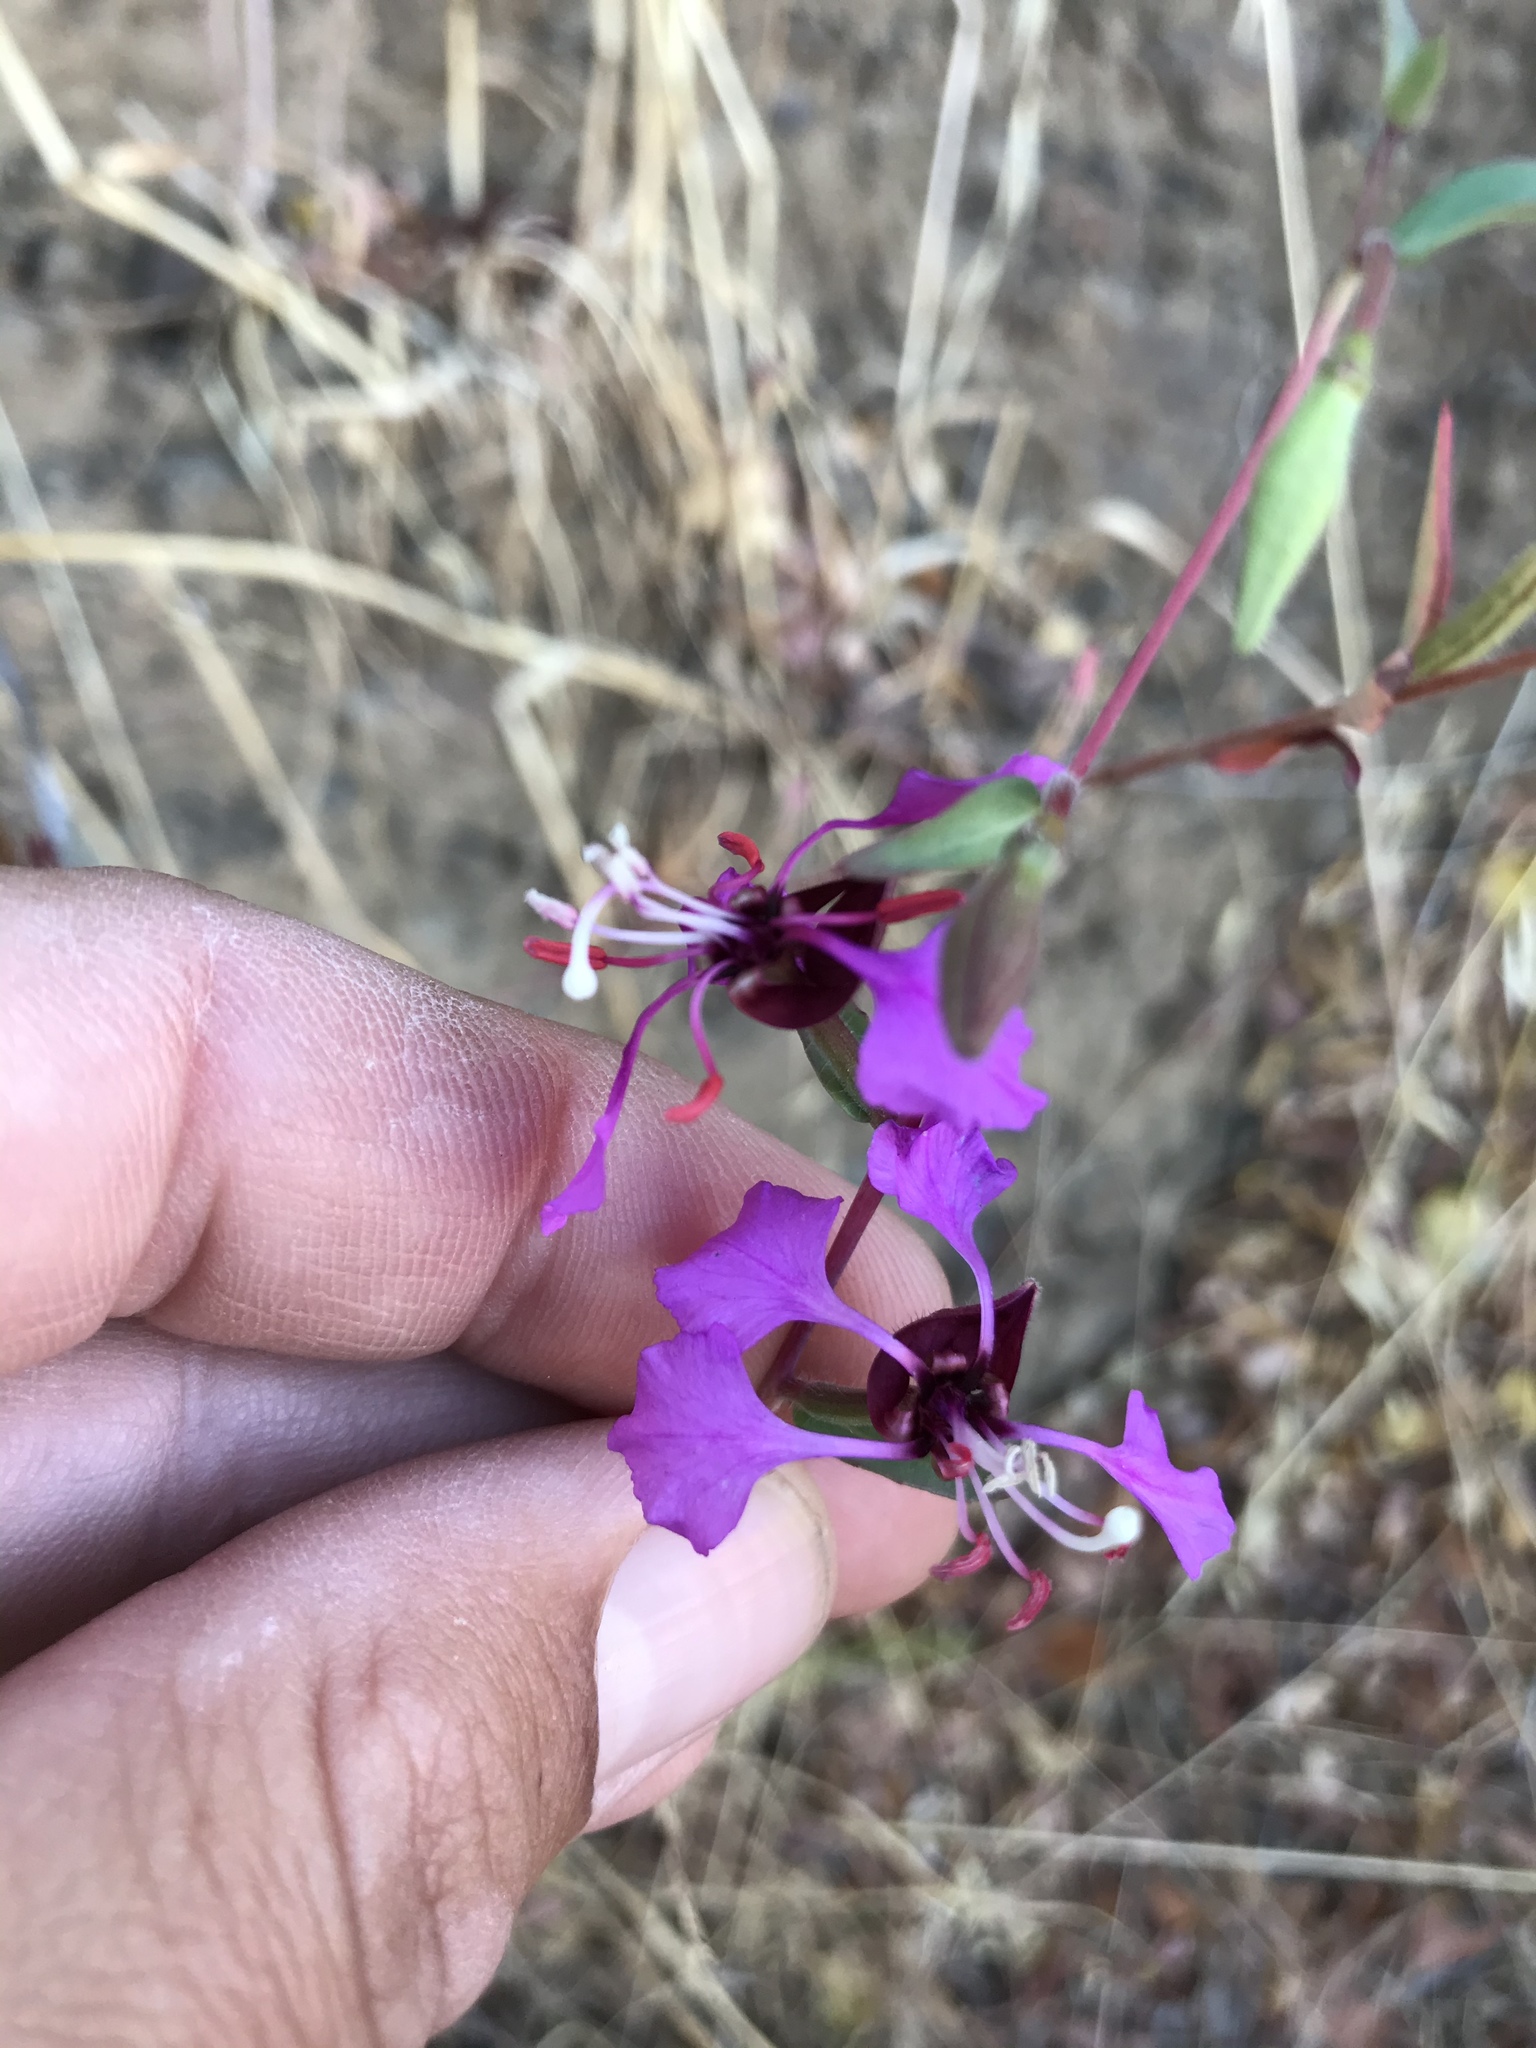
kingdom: Plantae
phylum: Tracheophyta
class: Magnoliopsida
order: Myrtales
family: Onagraceae
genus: Clarkia
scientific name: Clarkia unguiculata
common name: Clarkia
